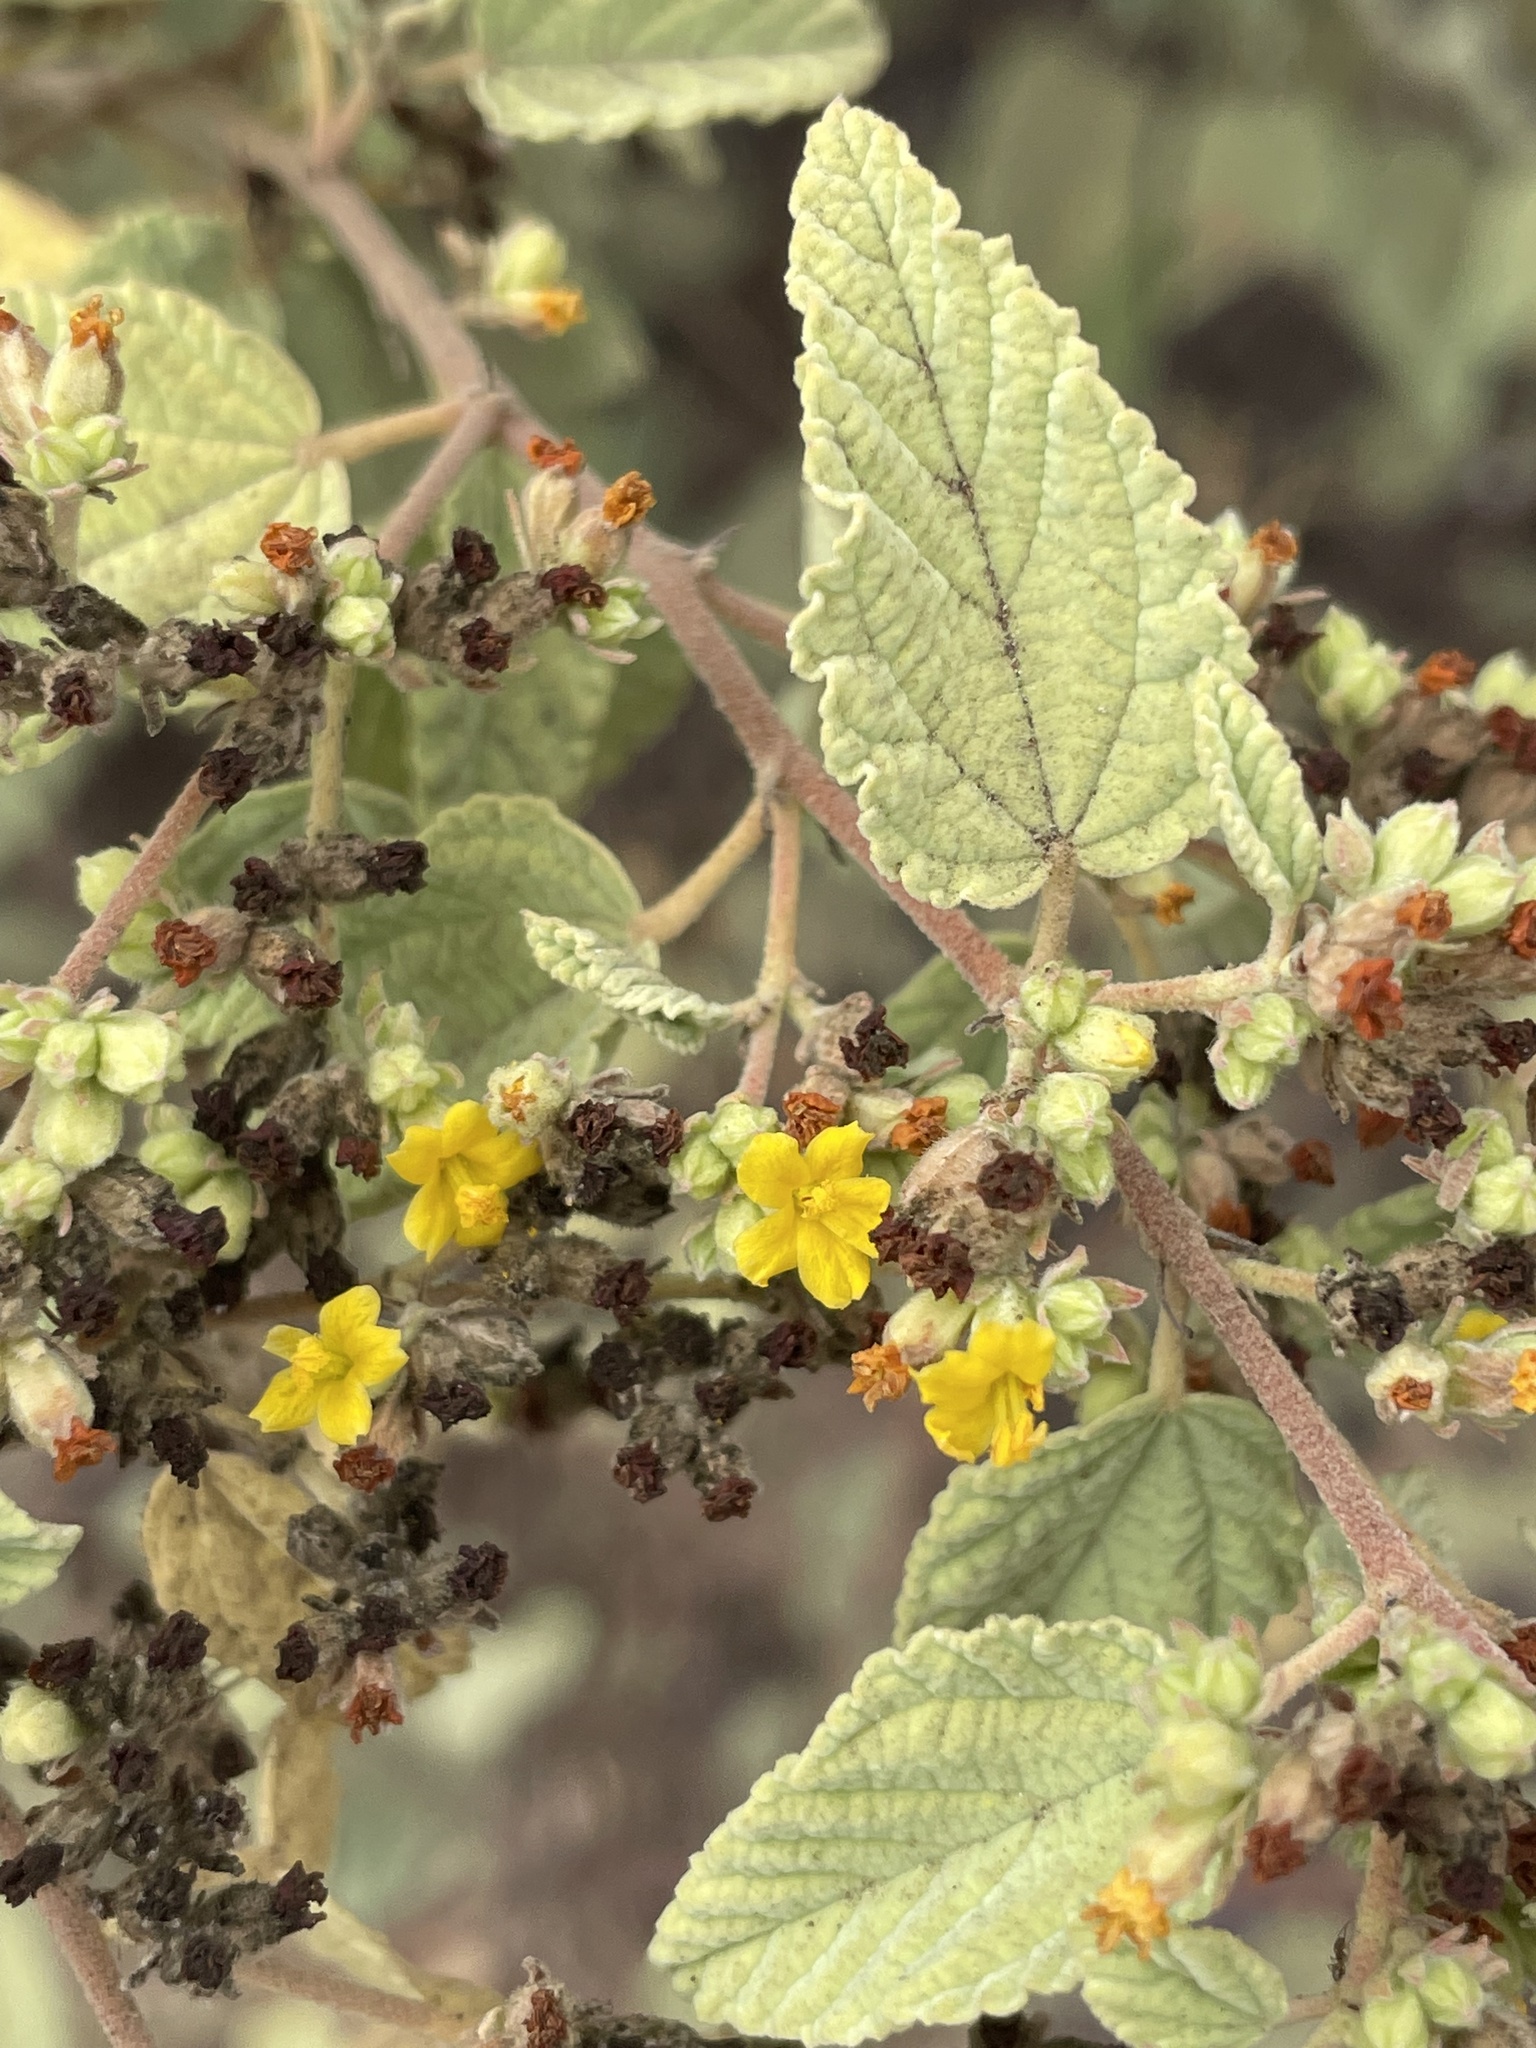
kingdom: Plantae
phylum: Tracheophyta
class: Magnoliopsida
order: Malvales
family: Malvaceae
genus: Waltheria
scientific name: Waltheria ovata
